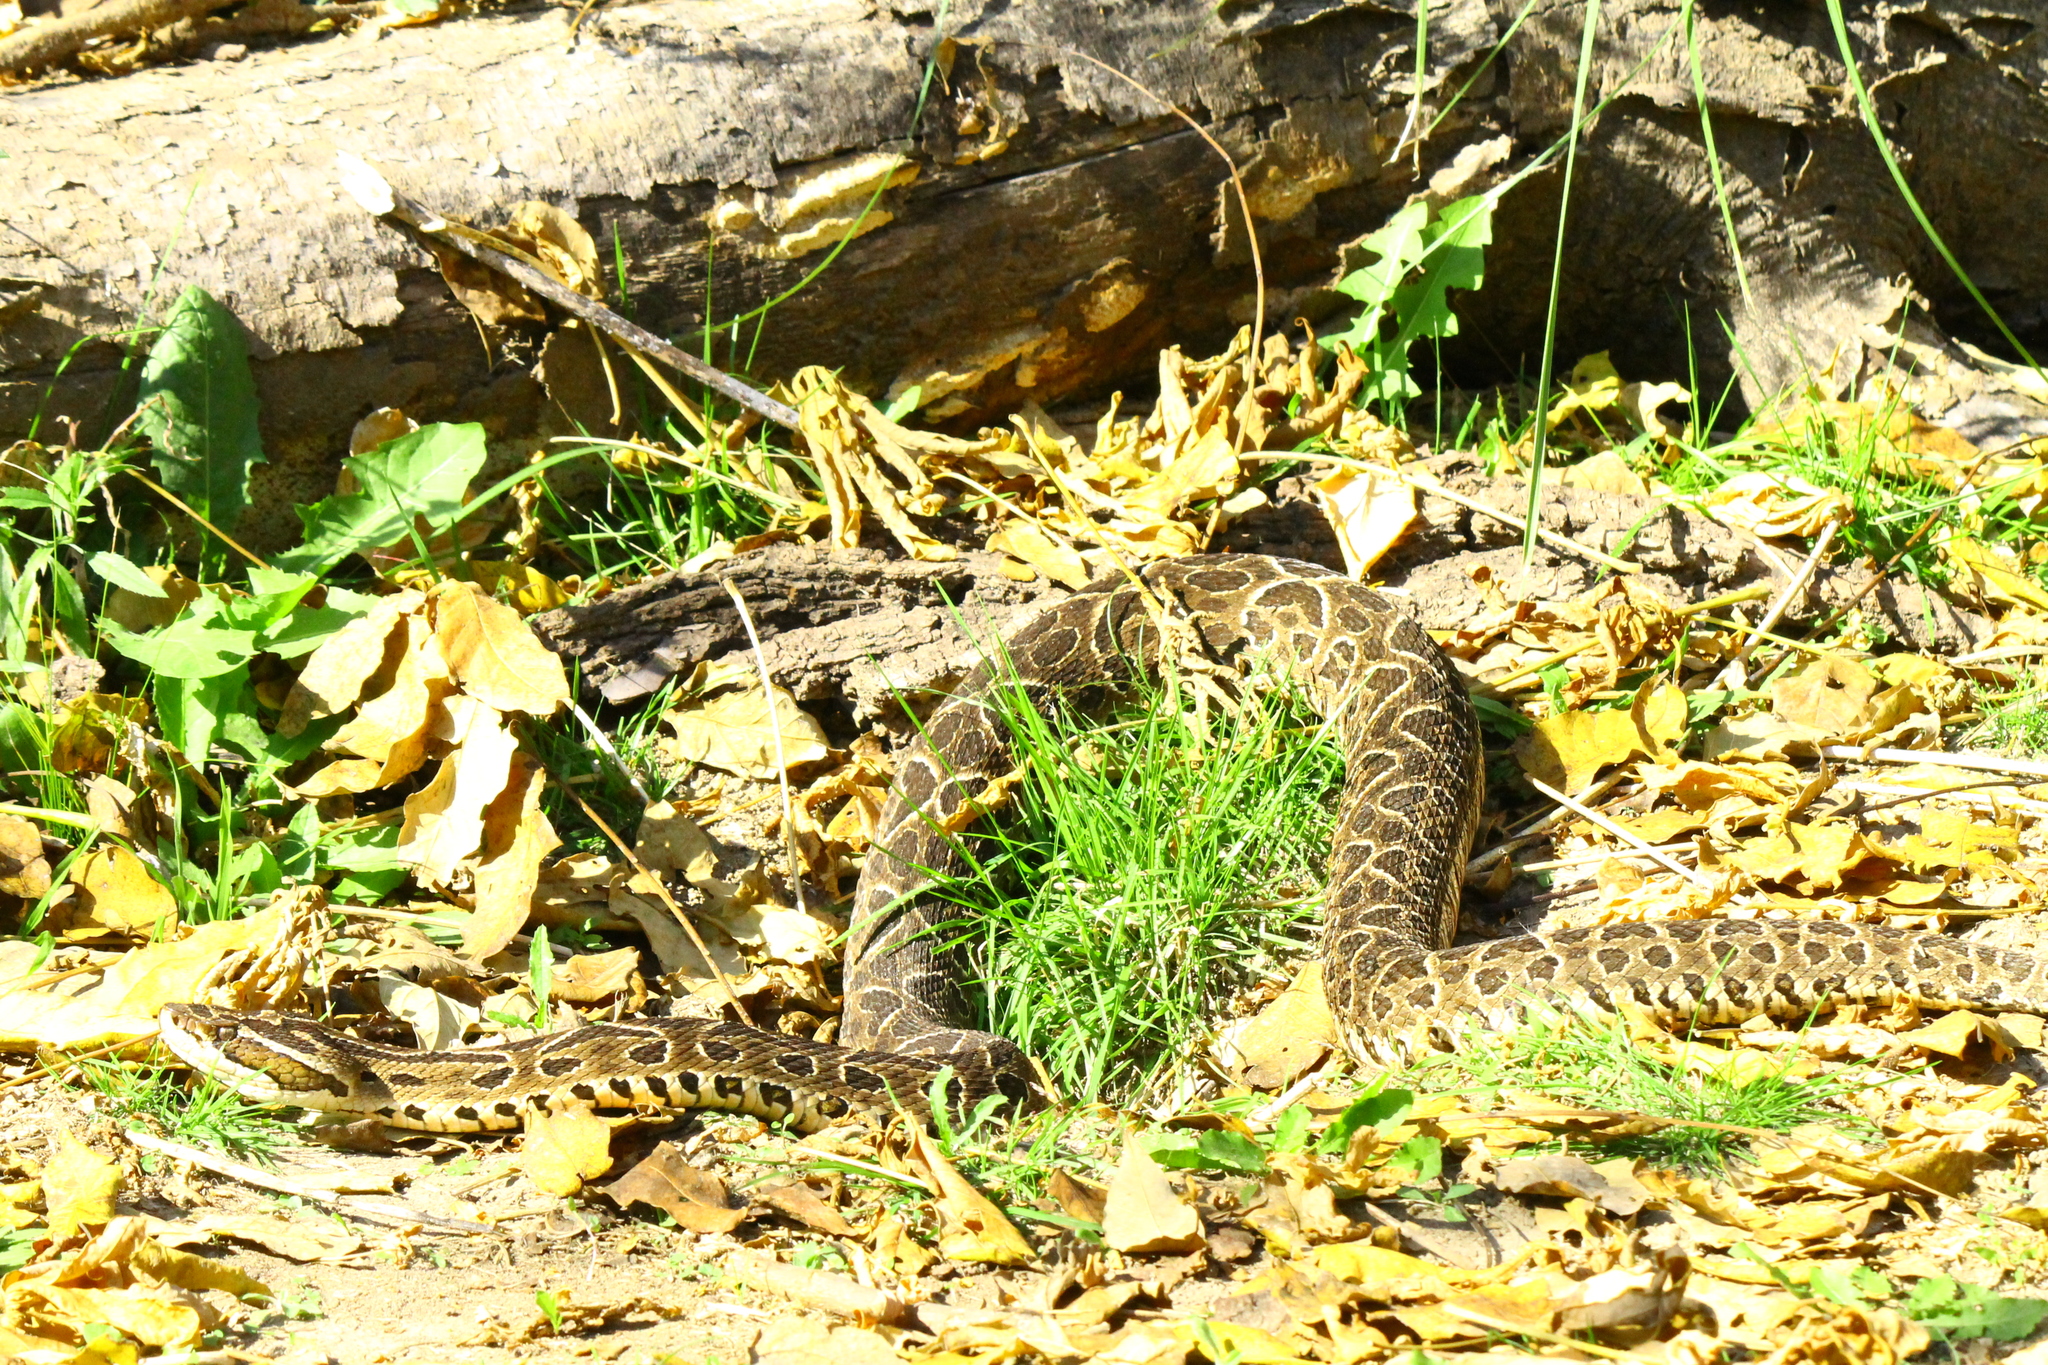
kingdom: Animalia
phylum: Chordata
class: Squamata
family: Viperidae
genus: Bothrops
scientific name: Bothrops alternatus
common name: Urutu
